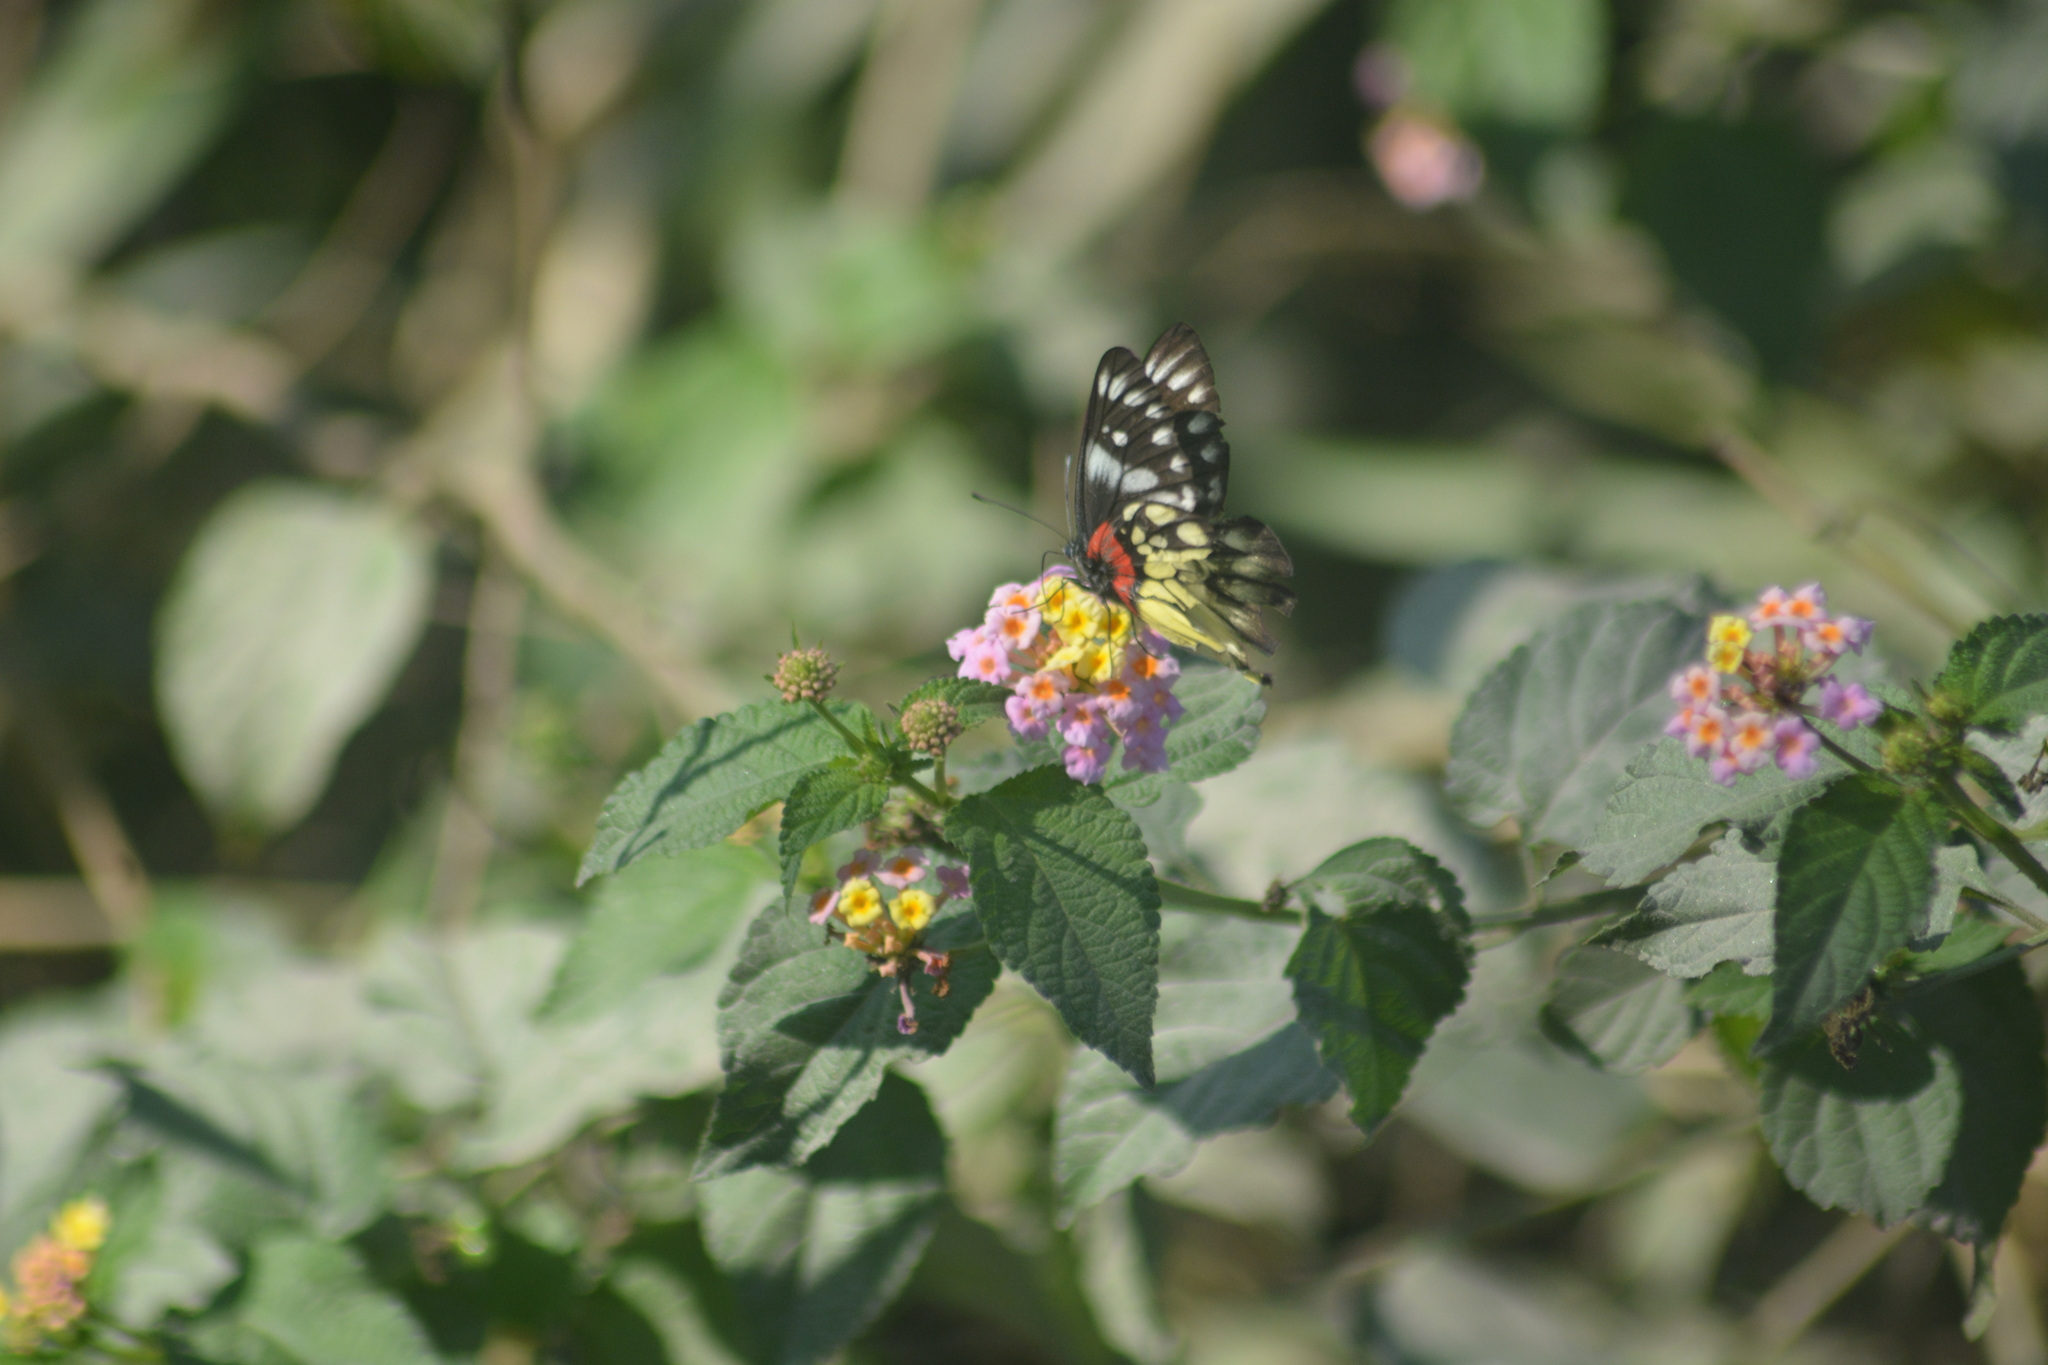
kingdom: Animalia
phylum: Arthropoda
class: Insecta
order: Lepidoptera
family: Pieridae
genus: Delias
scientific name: Delias pasithoe
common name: Red-base jezebel
